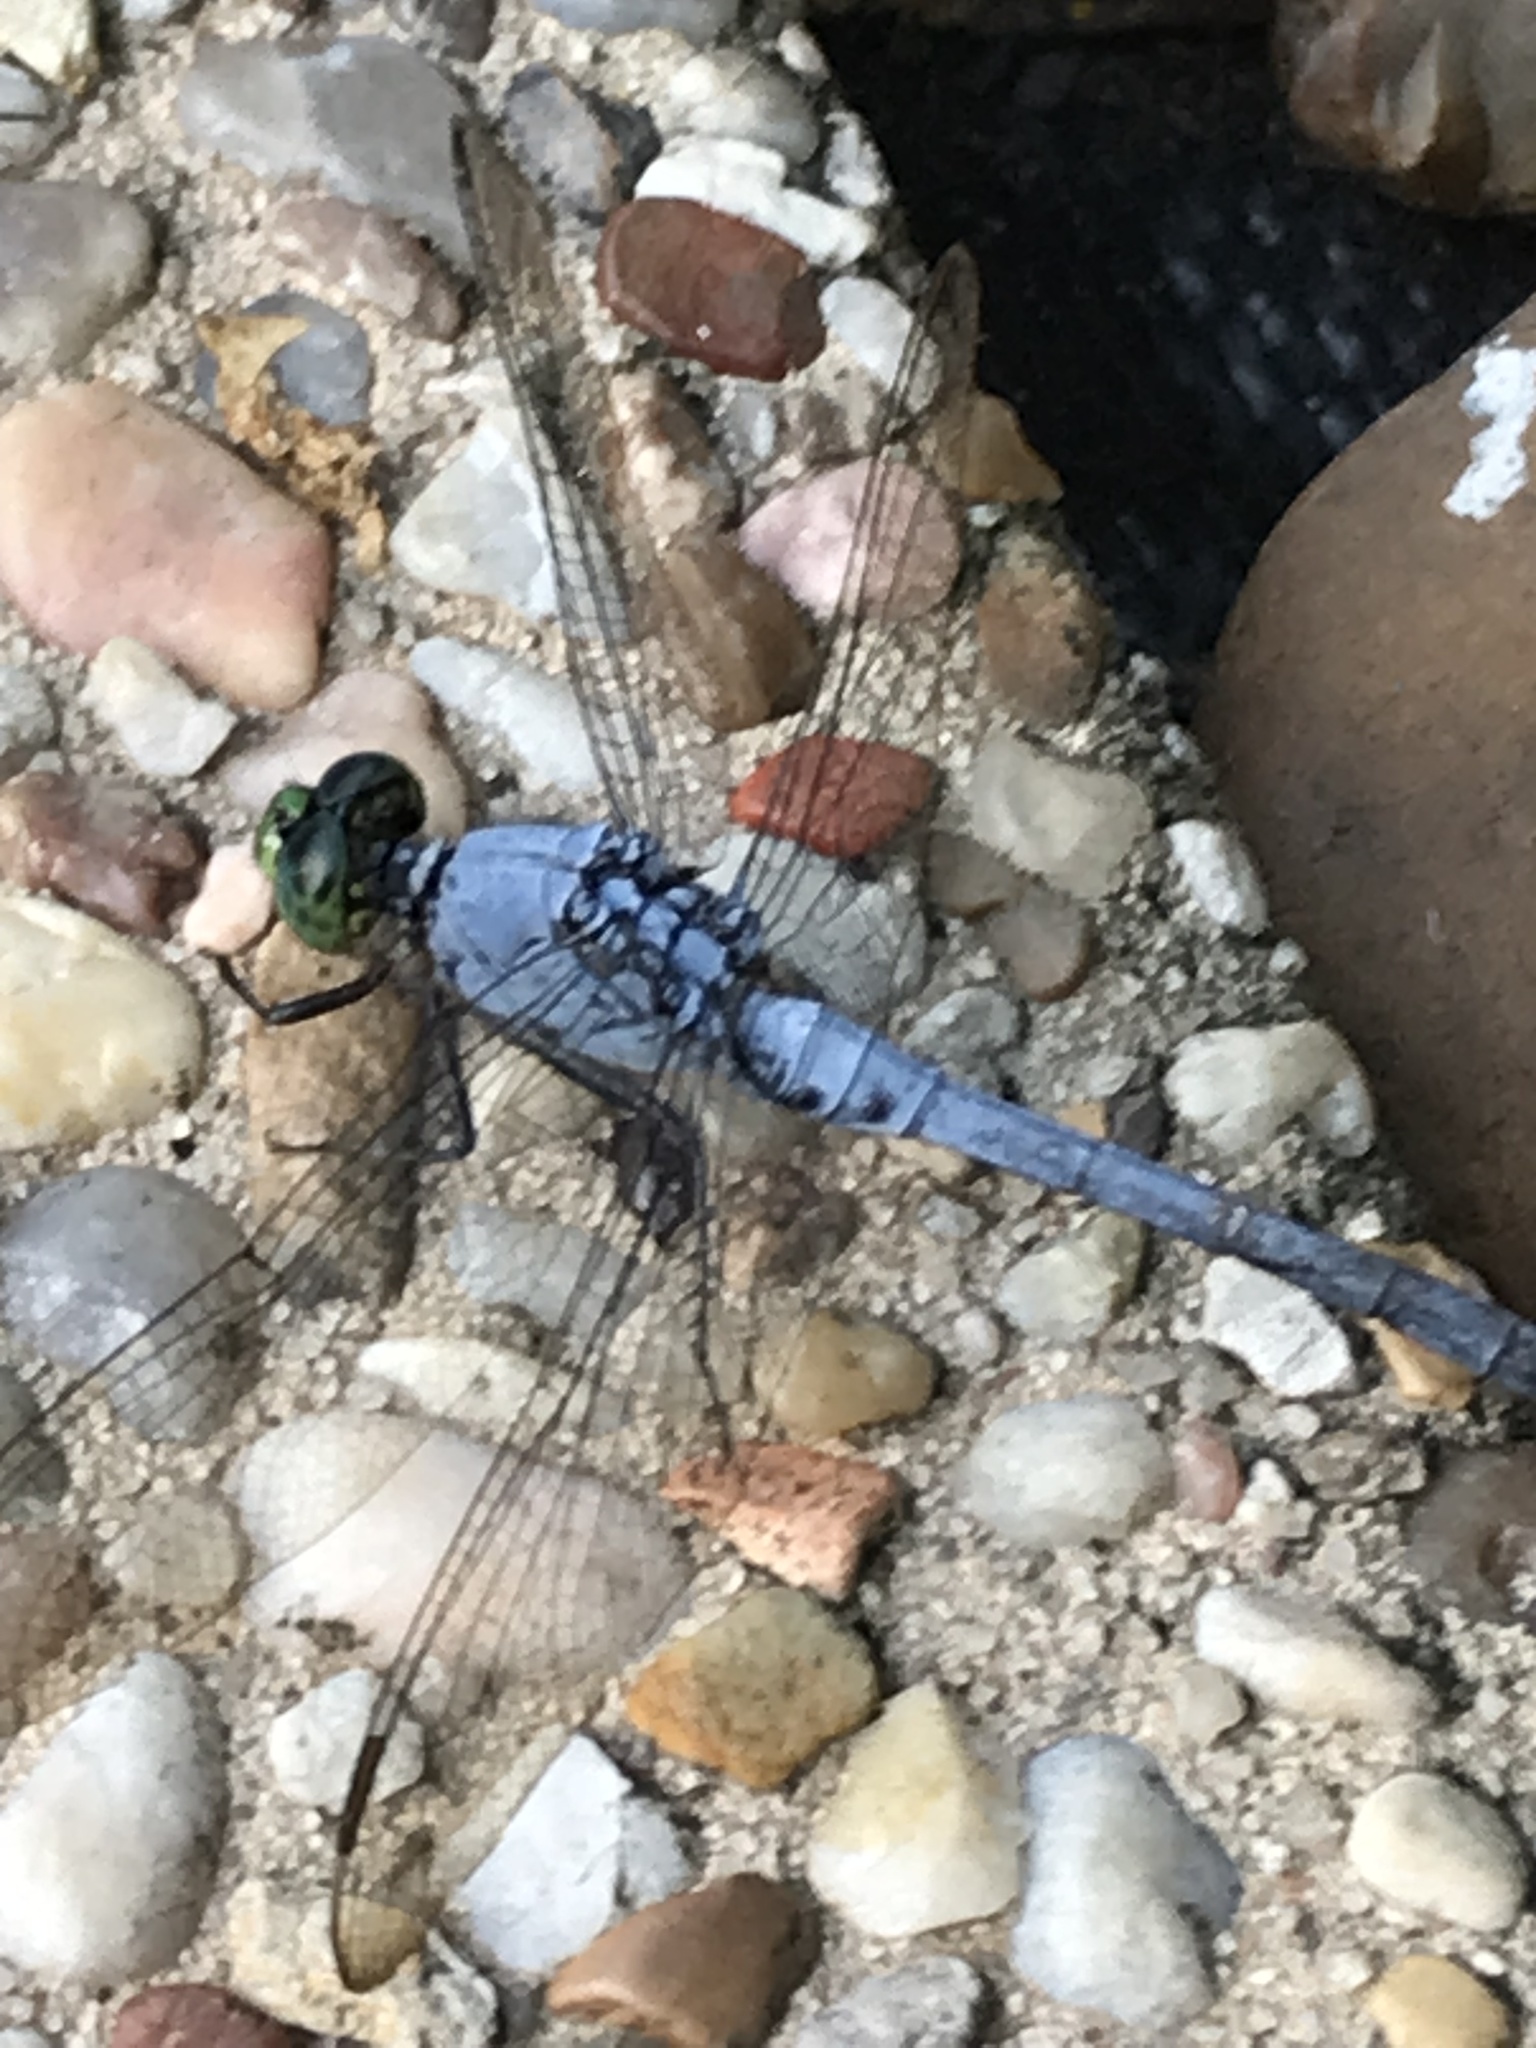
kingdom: Animalia
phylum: Arthropoda
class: Insecta
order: Odonata
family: Libellulidae
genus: Erythemis
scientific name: Erythemis simplicicollis
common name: Eastern pondhawk
